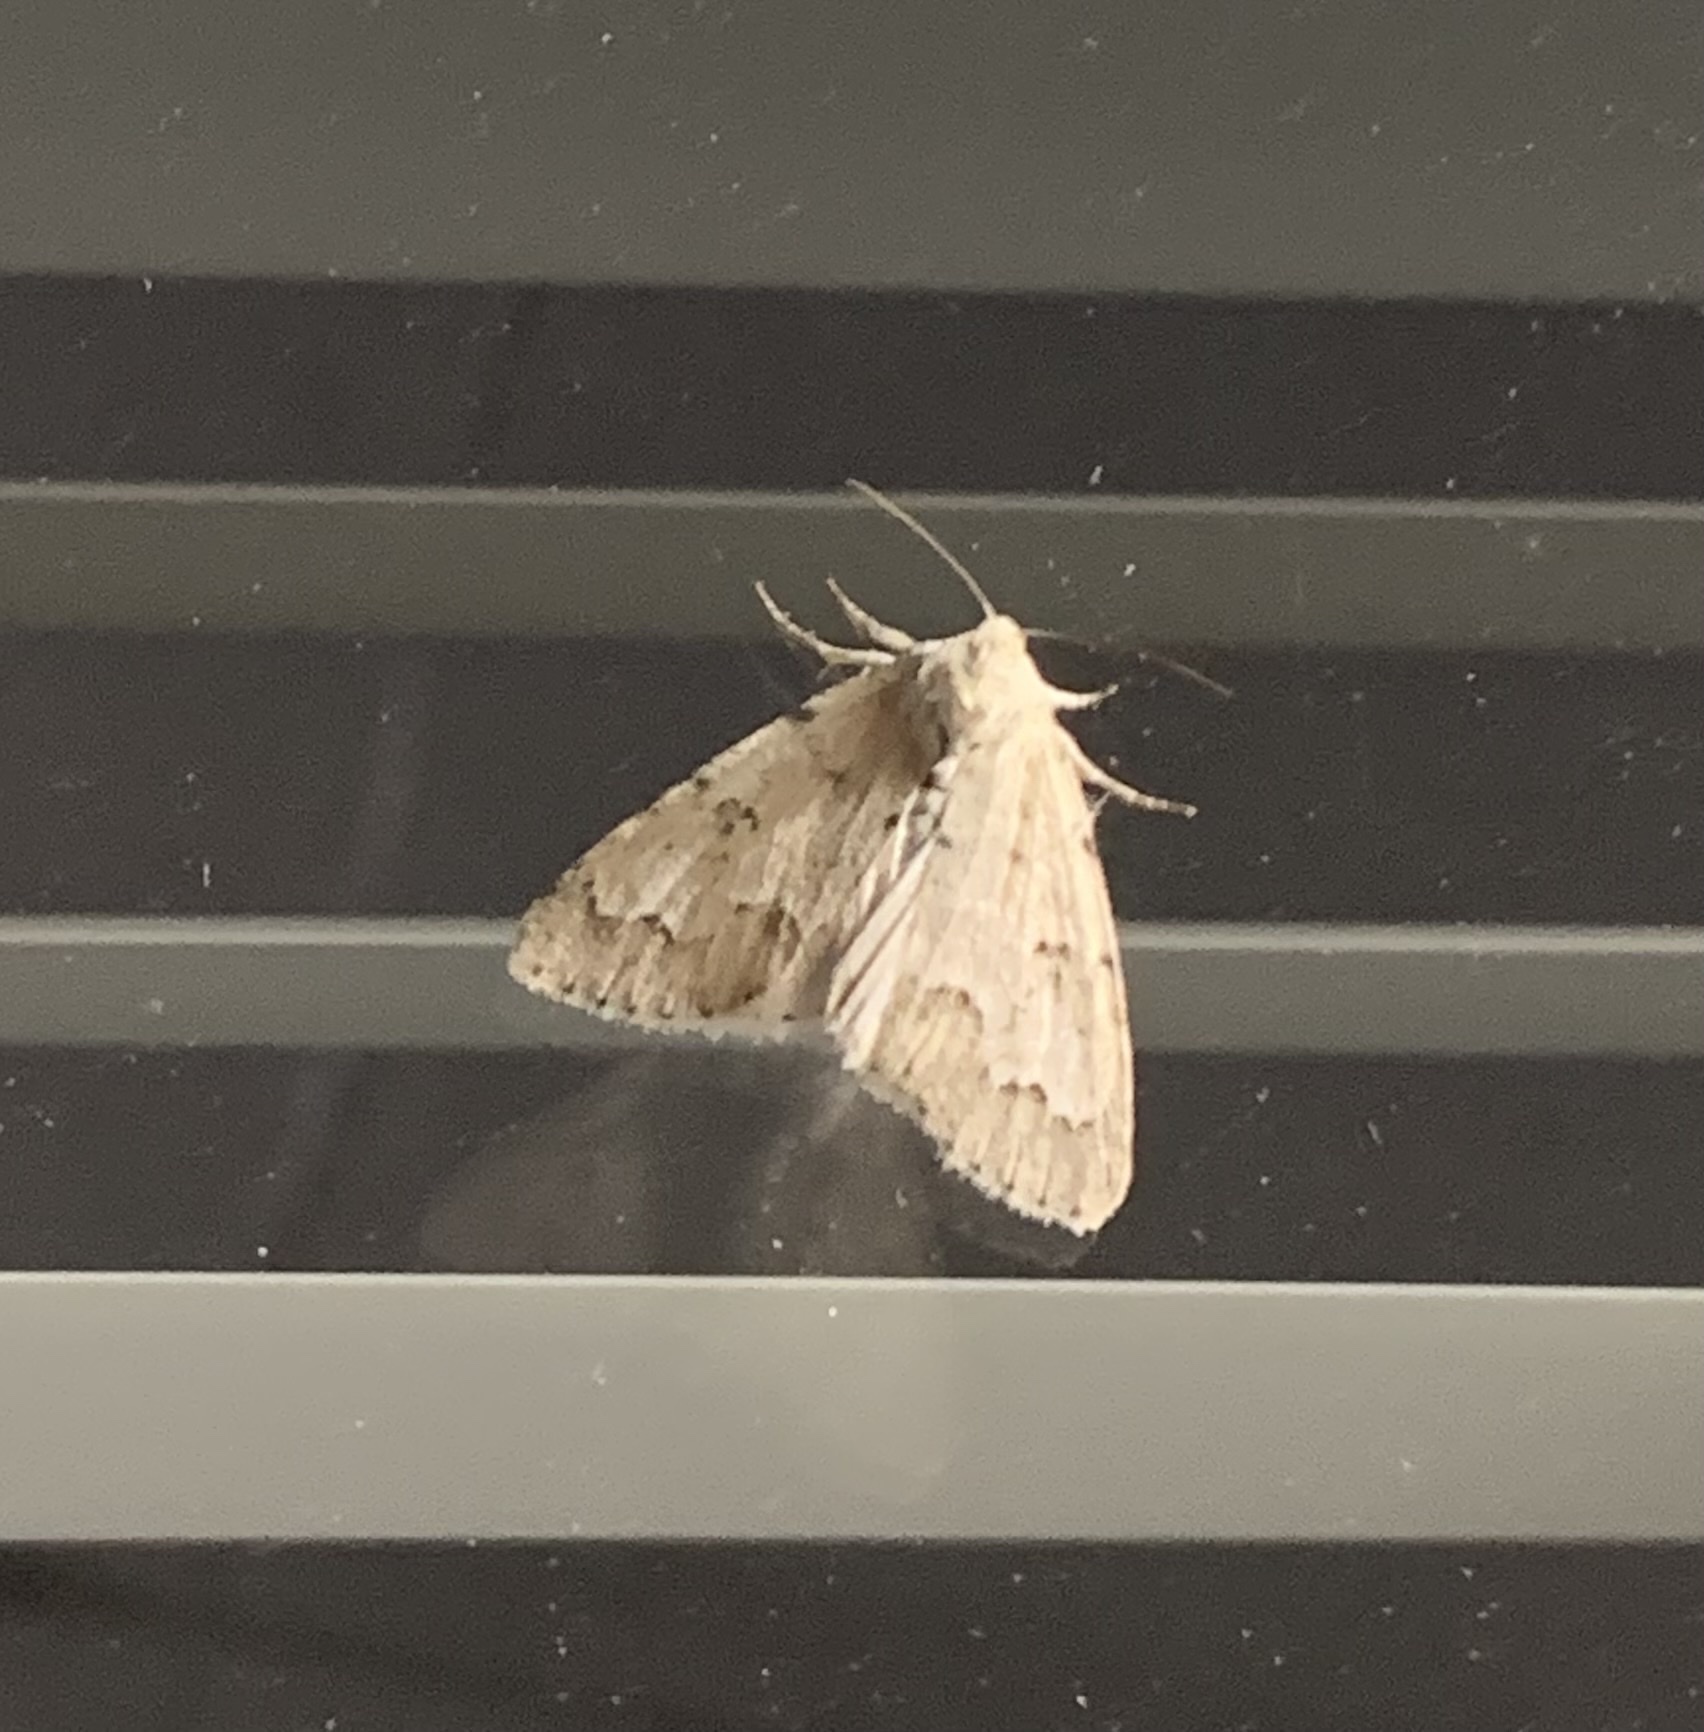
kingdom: Animalia
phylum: Arthropoda
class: Insecta
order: Lepidoptera
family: Noctuidae
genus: Acronicta
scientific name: Acronicta innotata
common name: Unmarked dagger
